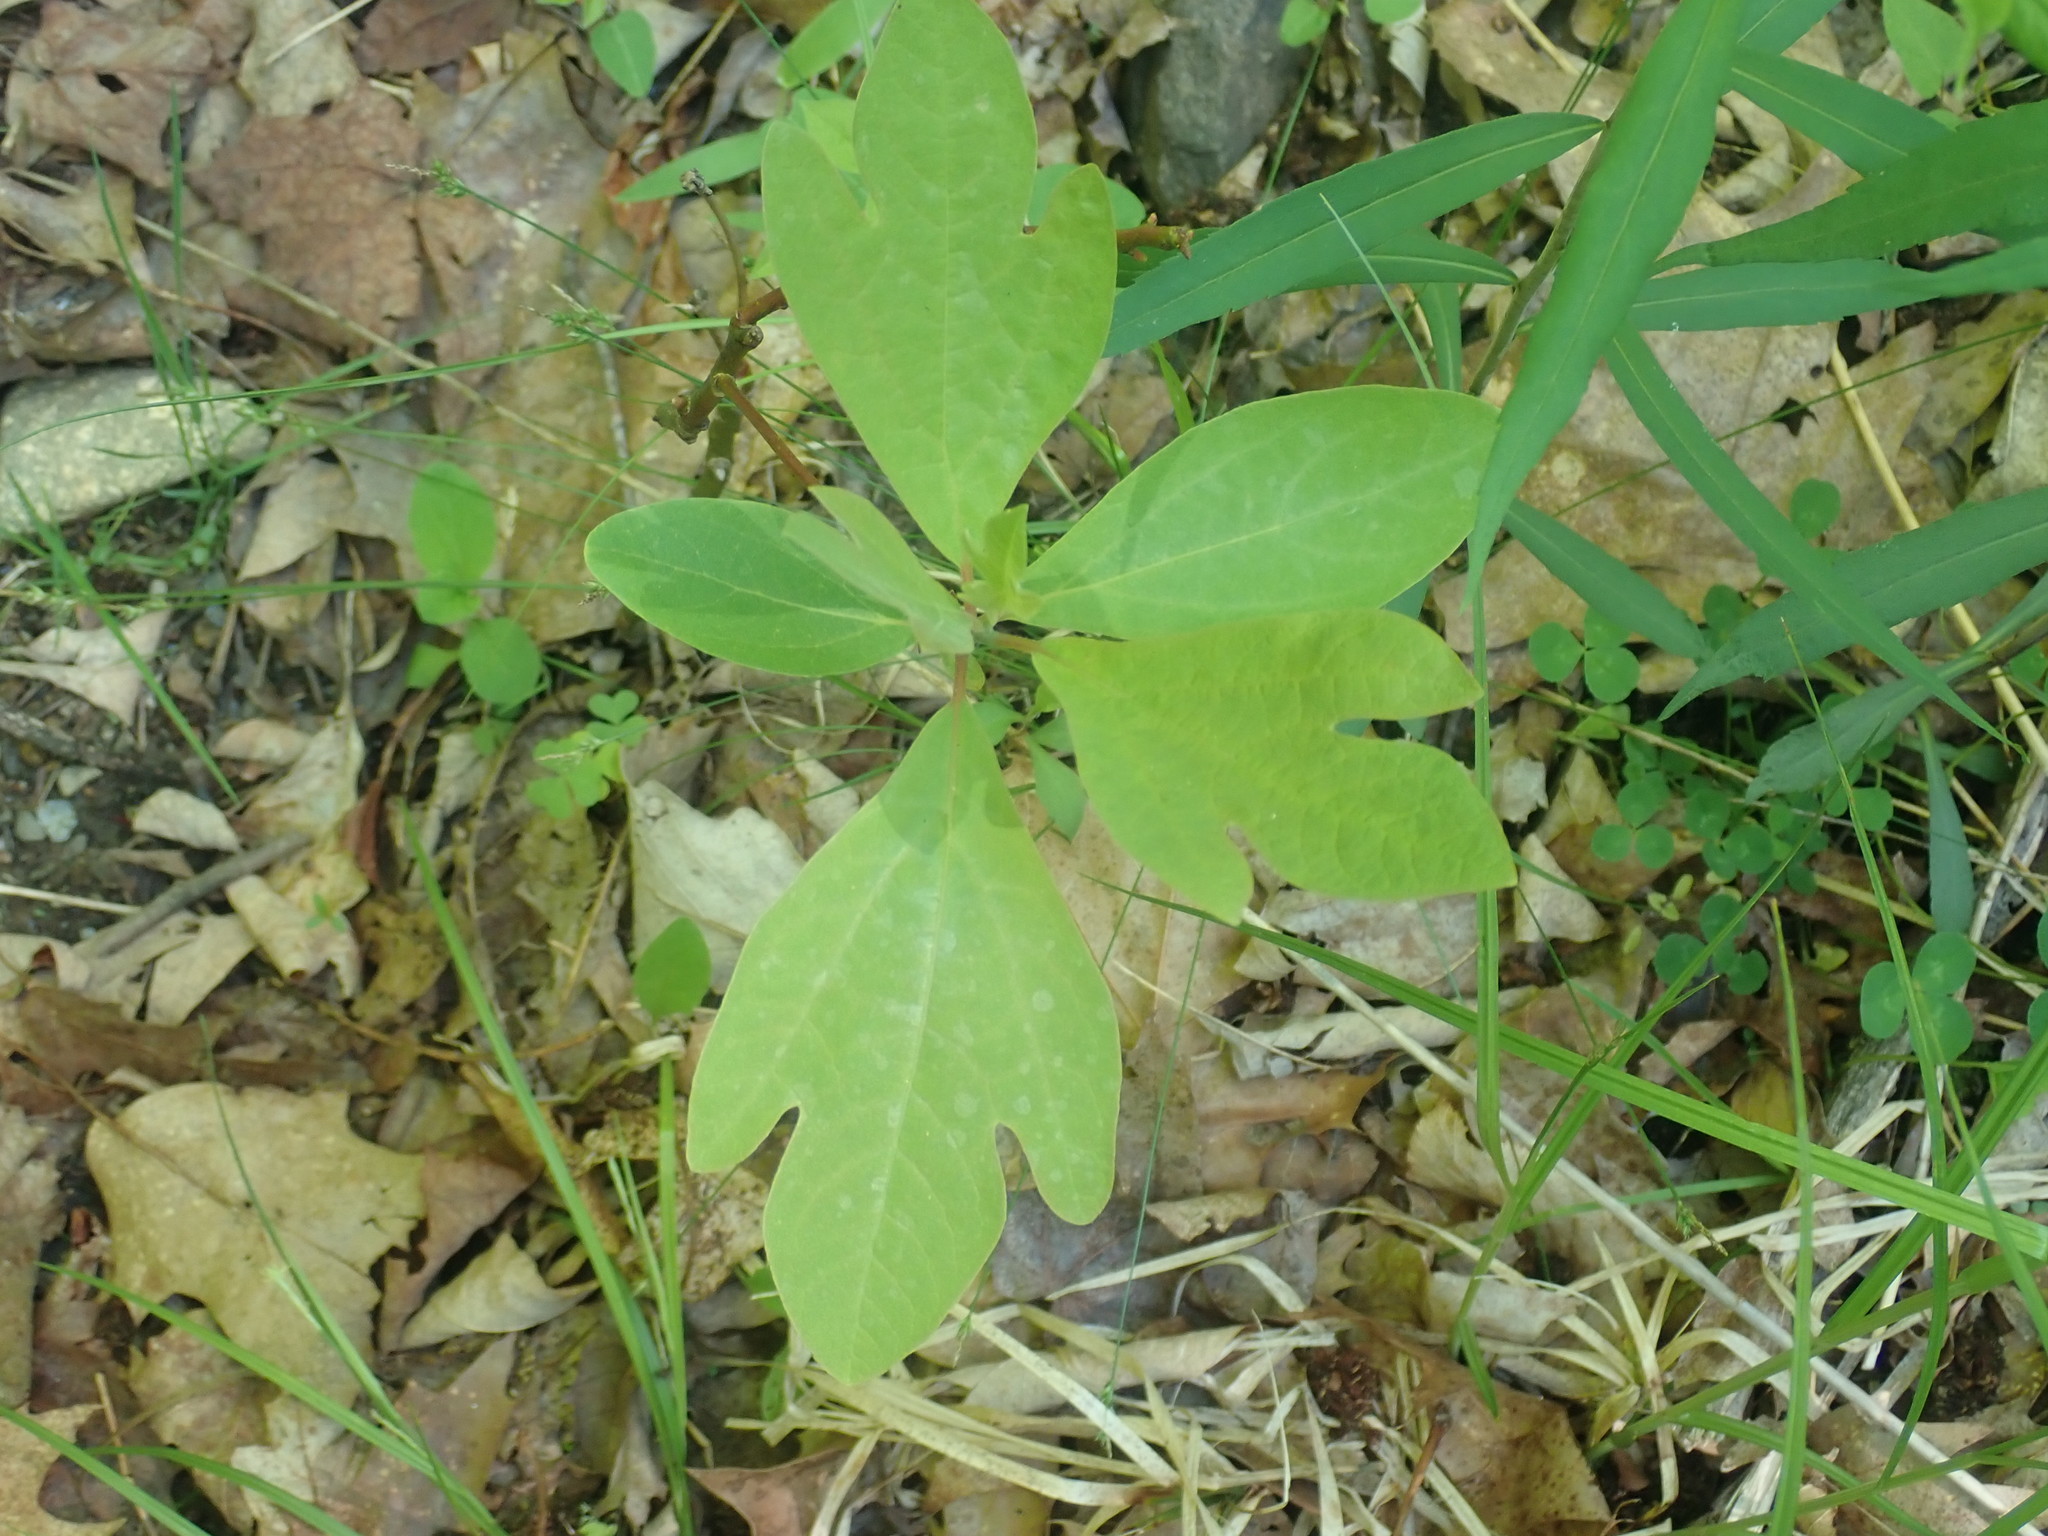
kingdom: Plantae
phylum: Tracheophyta
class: Magnoliopsida
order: Laurales
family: Lauraceae
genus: Sassafras
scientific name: Sassafras albidum
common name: Sassafras
